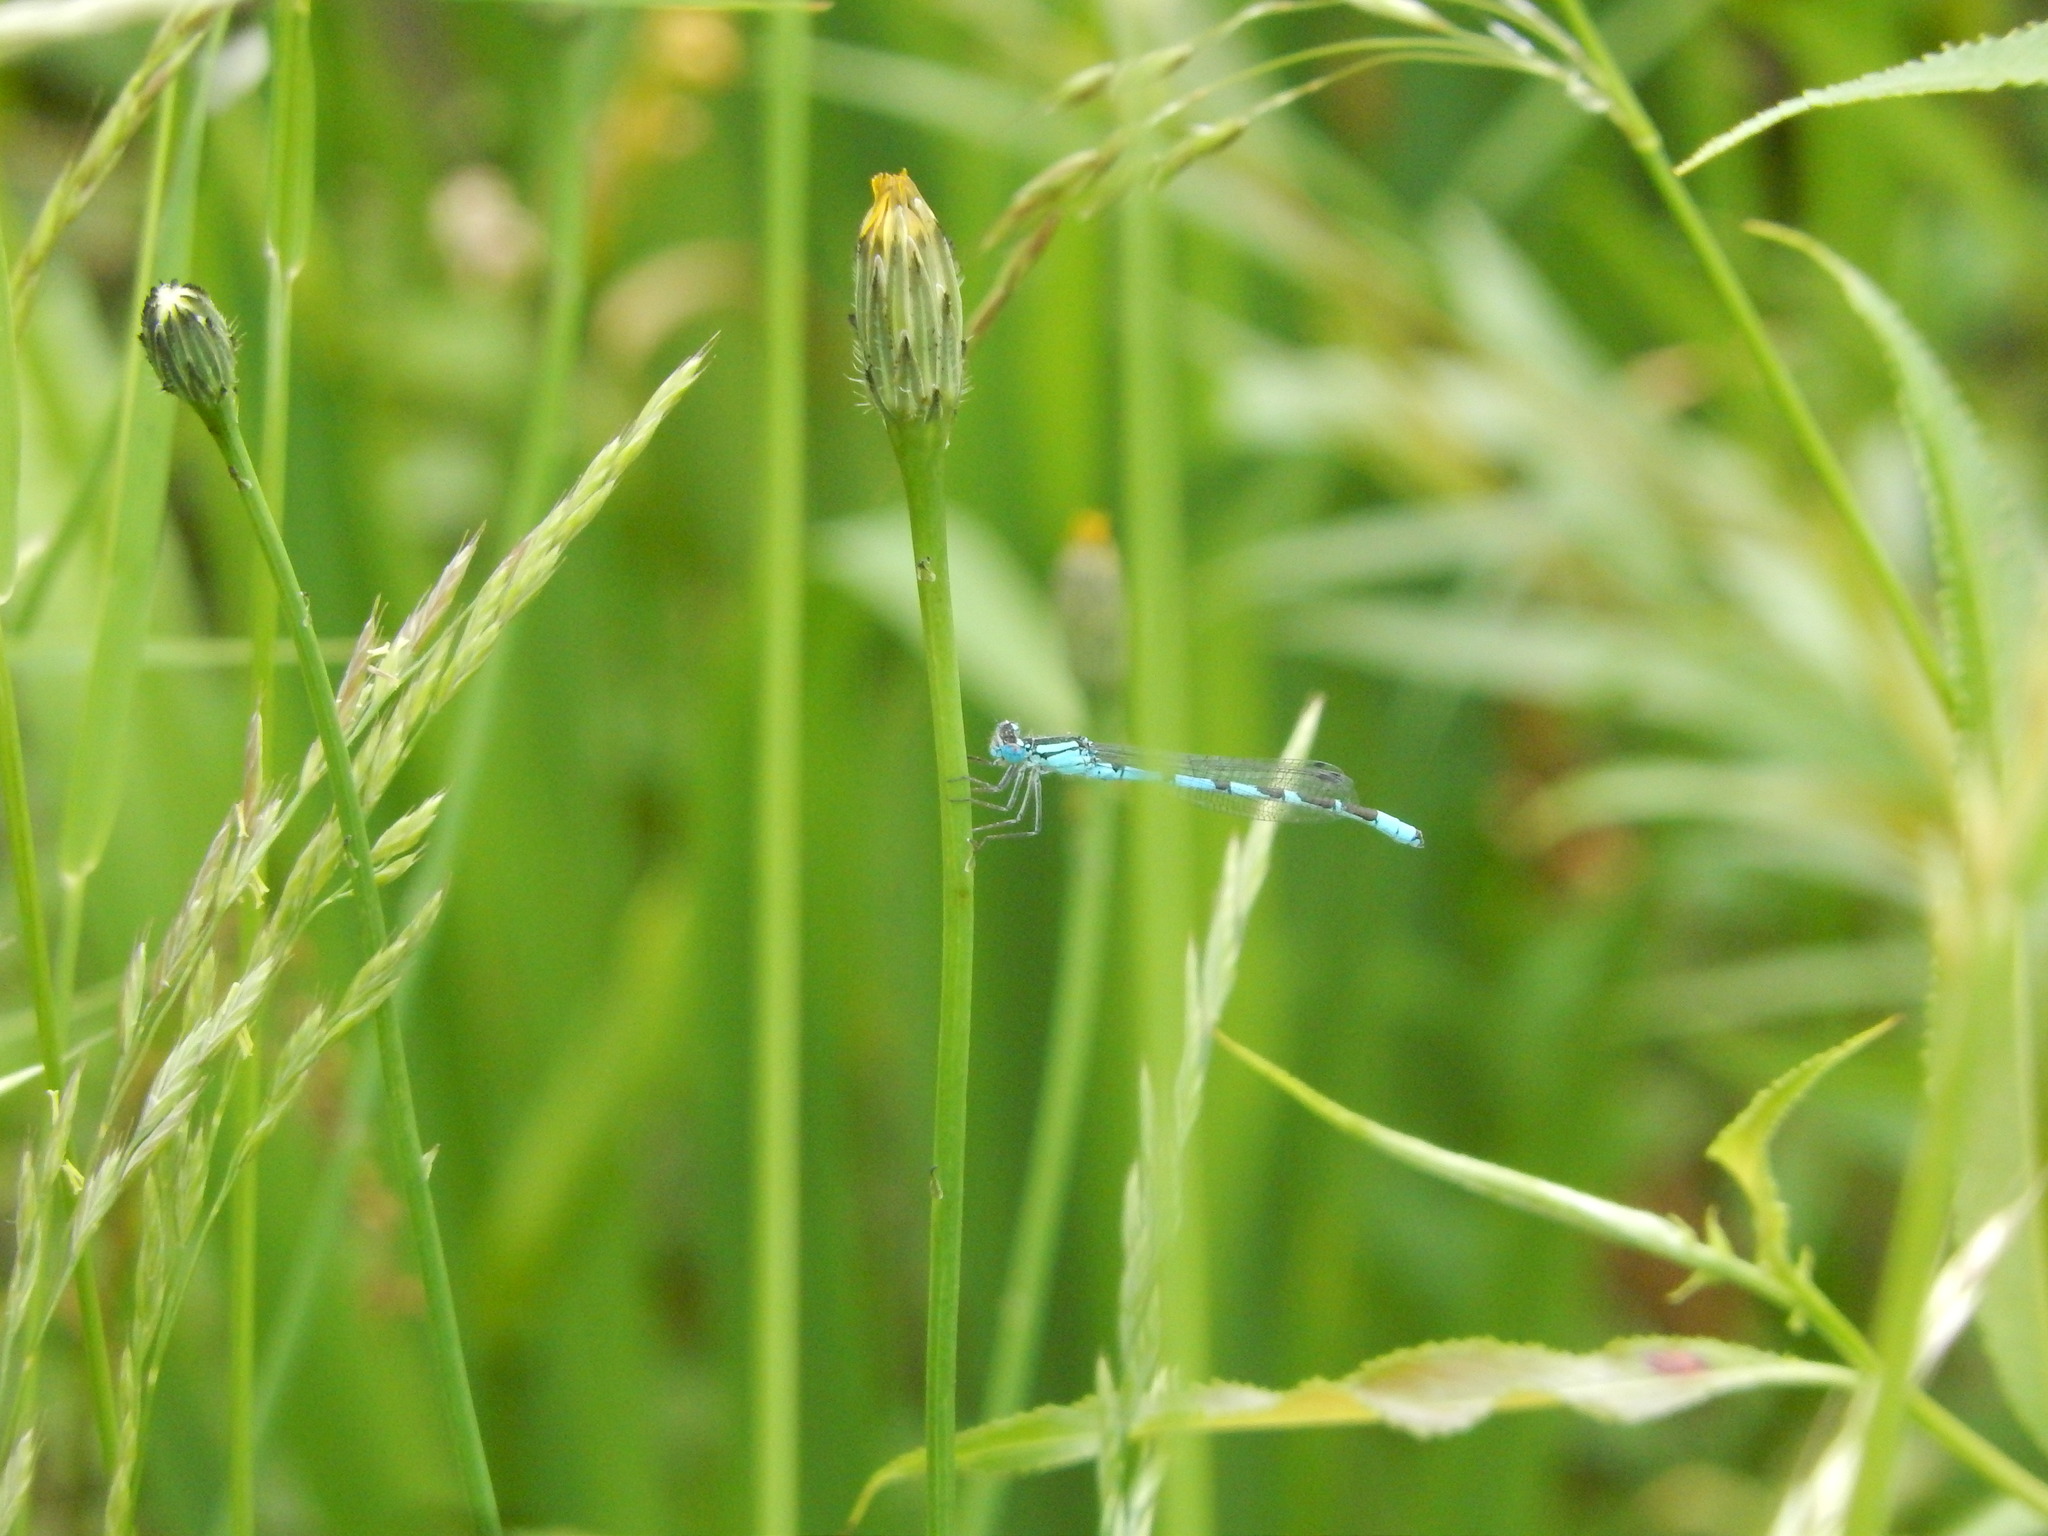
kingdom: Animalia
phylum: Arthropoda
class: Insecta
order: Odonata
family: Coenagrionidae
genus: Enallagma
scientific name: Enallagma cyathigerum
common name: Common blue damselfly
